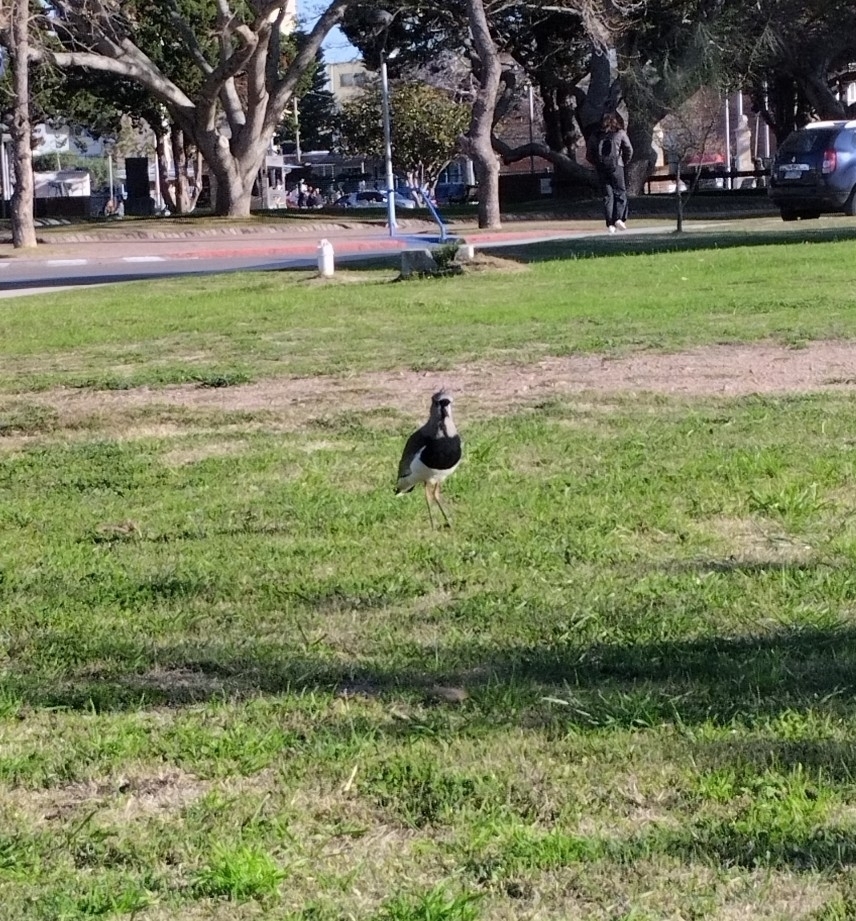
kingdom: Animalia
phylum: Chordata
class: Aves
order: Charadriiformes
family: Charadriidae
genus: Vanellus
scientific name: Vanellus chilensis
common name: Southern lapwing
